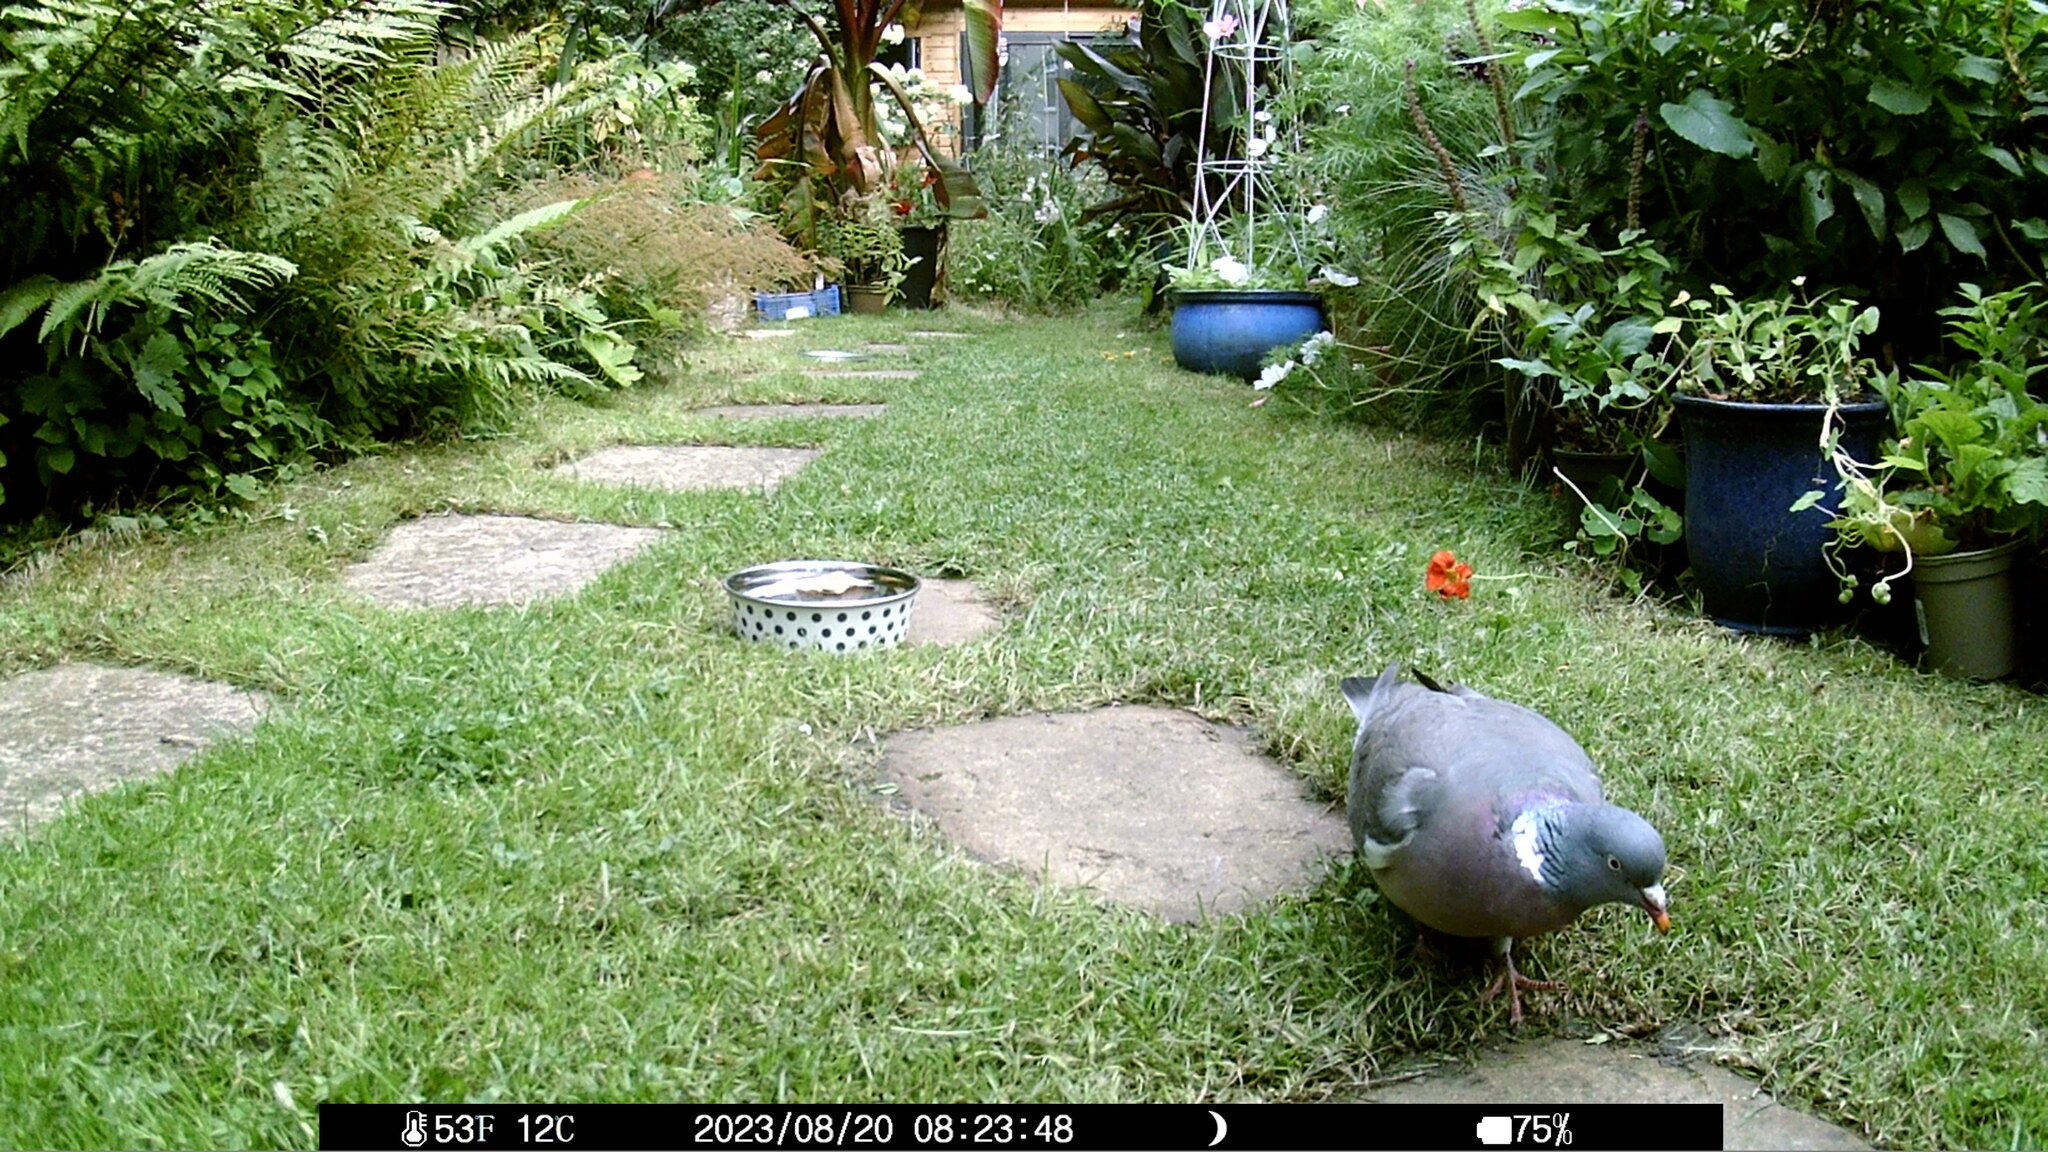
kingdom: Animalia
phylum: Chordata
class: Aves
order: Columbiformes
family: Columbidae
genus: Columba
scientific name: Columba palumbus
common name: Common wood pigeon
